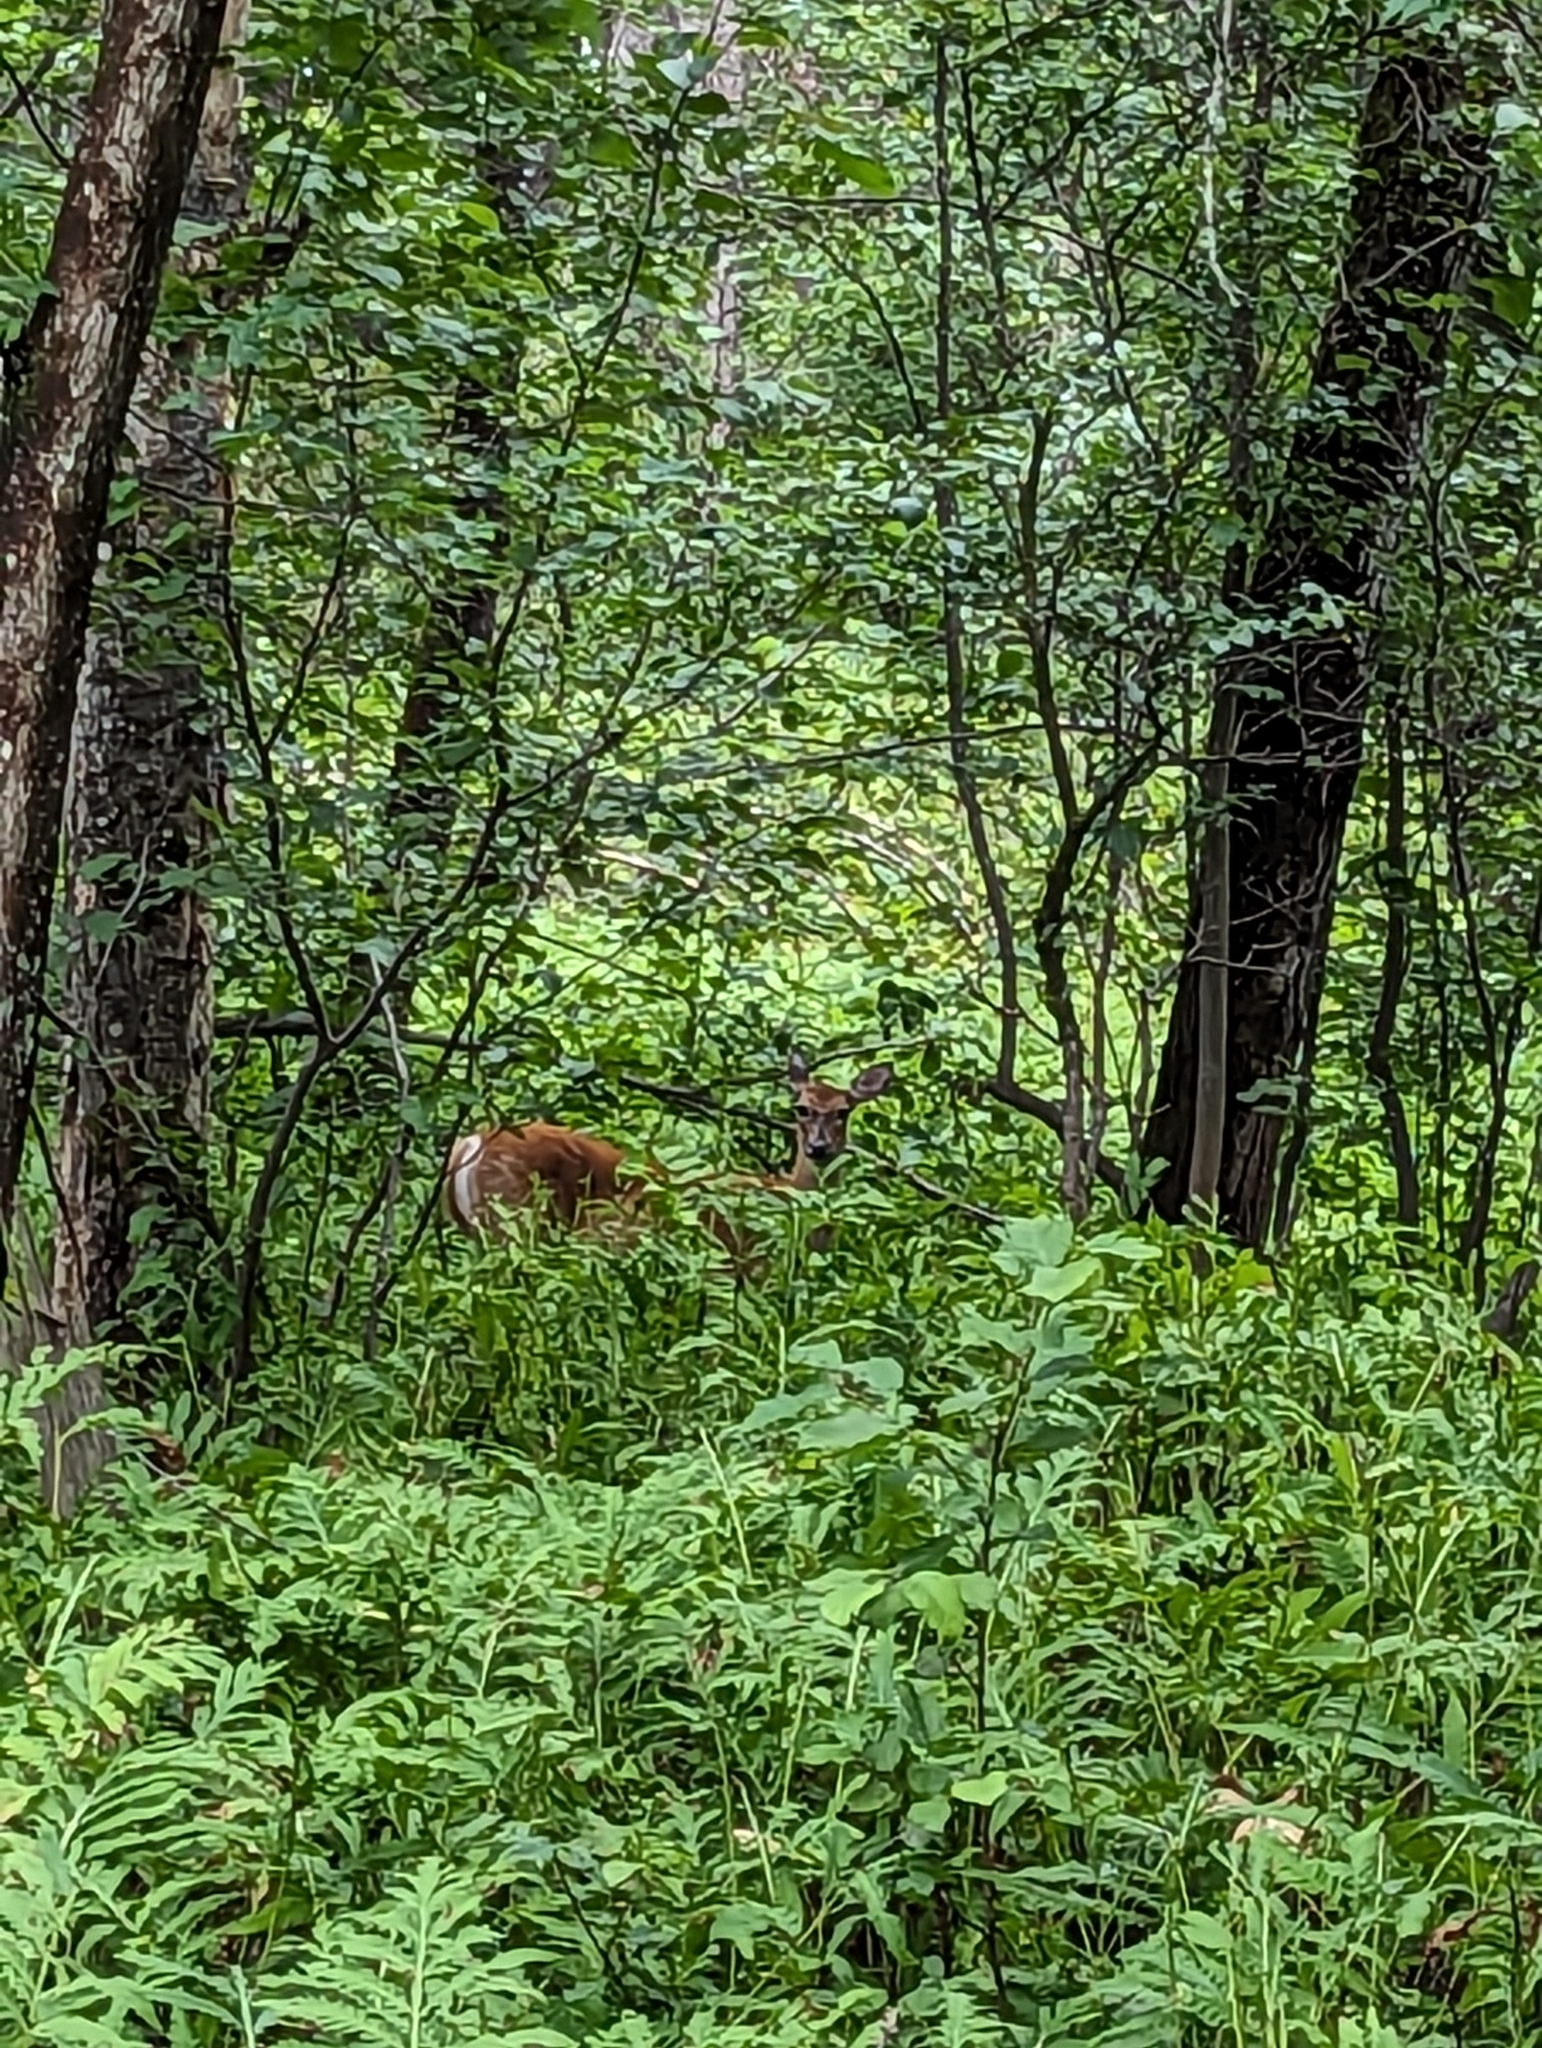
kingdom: Animalia
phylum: Chordata
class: Mammalia
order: Artiodactyla
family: Cervidae
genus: Odocoileus
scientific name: Odocoileus virginianus
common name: White-tailed deer
